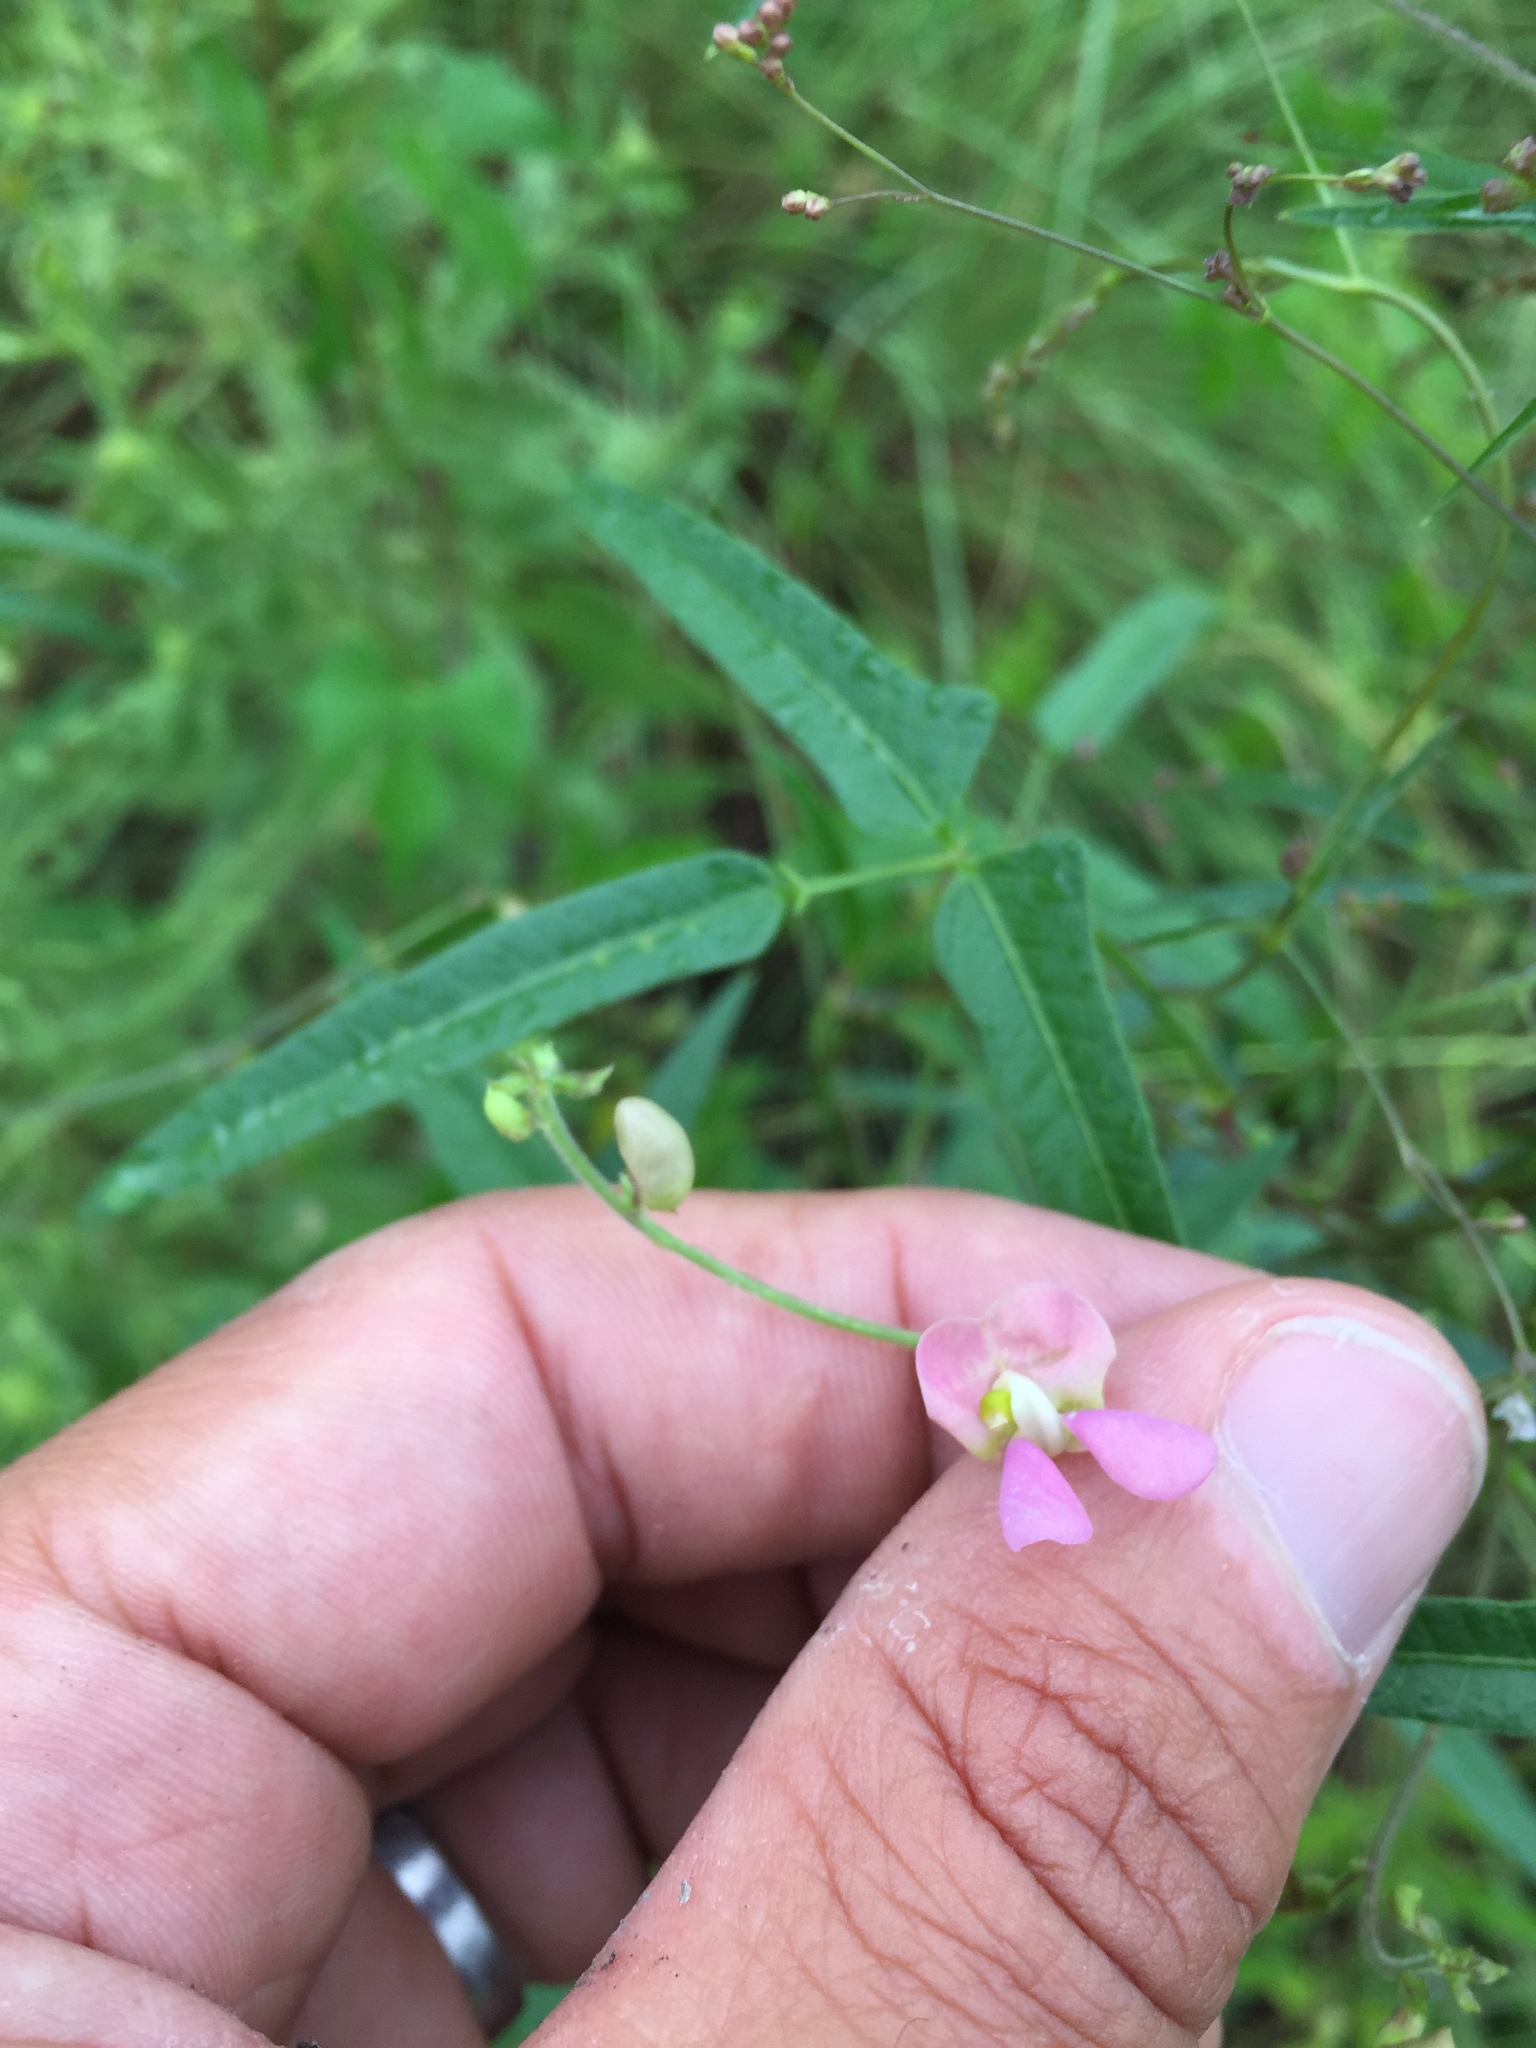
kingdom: Plantae
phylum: Tracheophyta
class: Magnoliopsida
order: Fabales
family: Fabaceae
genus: Phaseolus
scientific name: Phaseolus acutifolius
